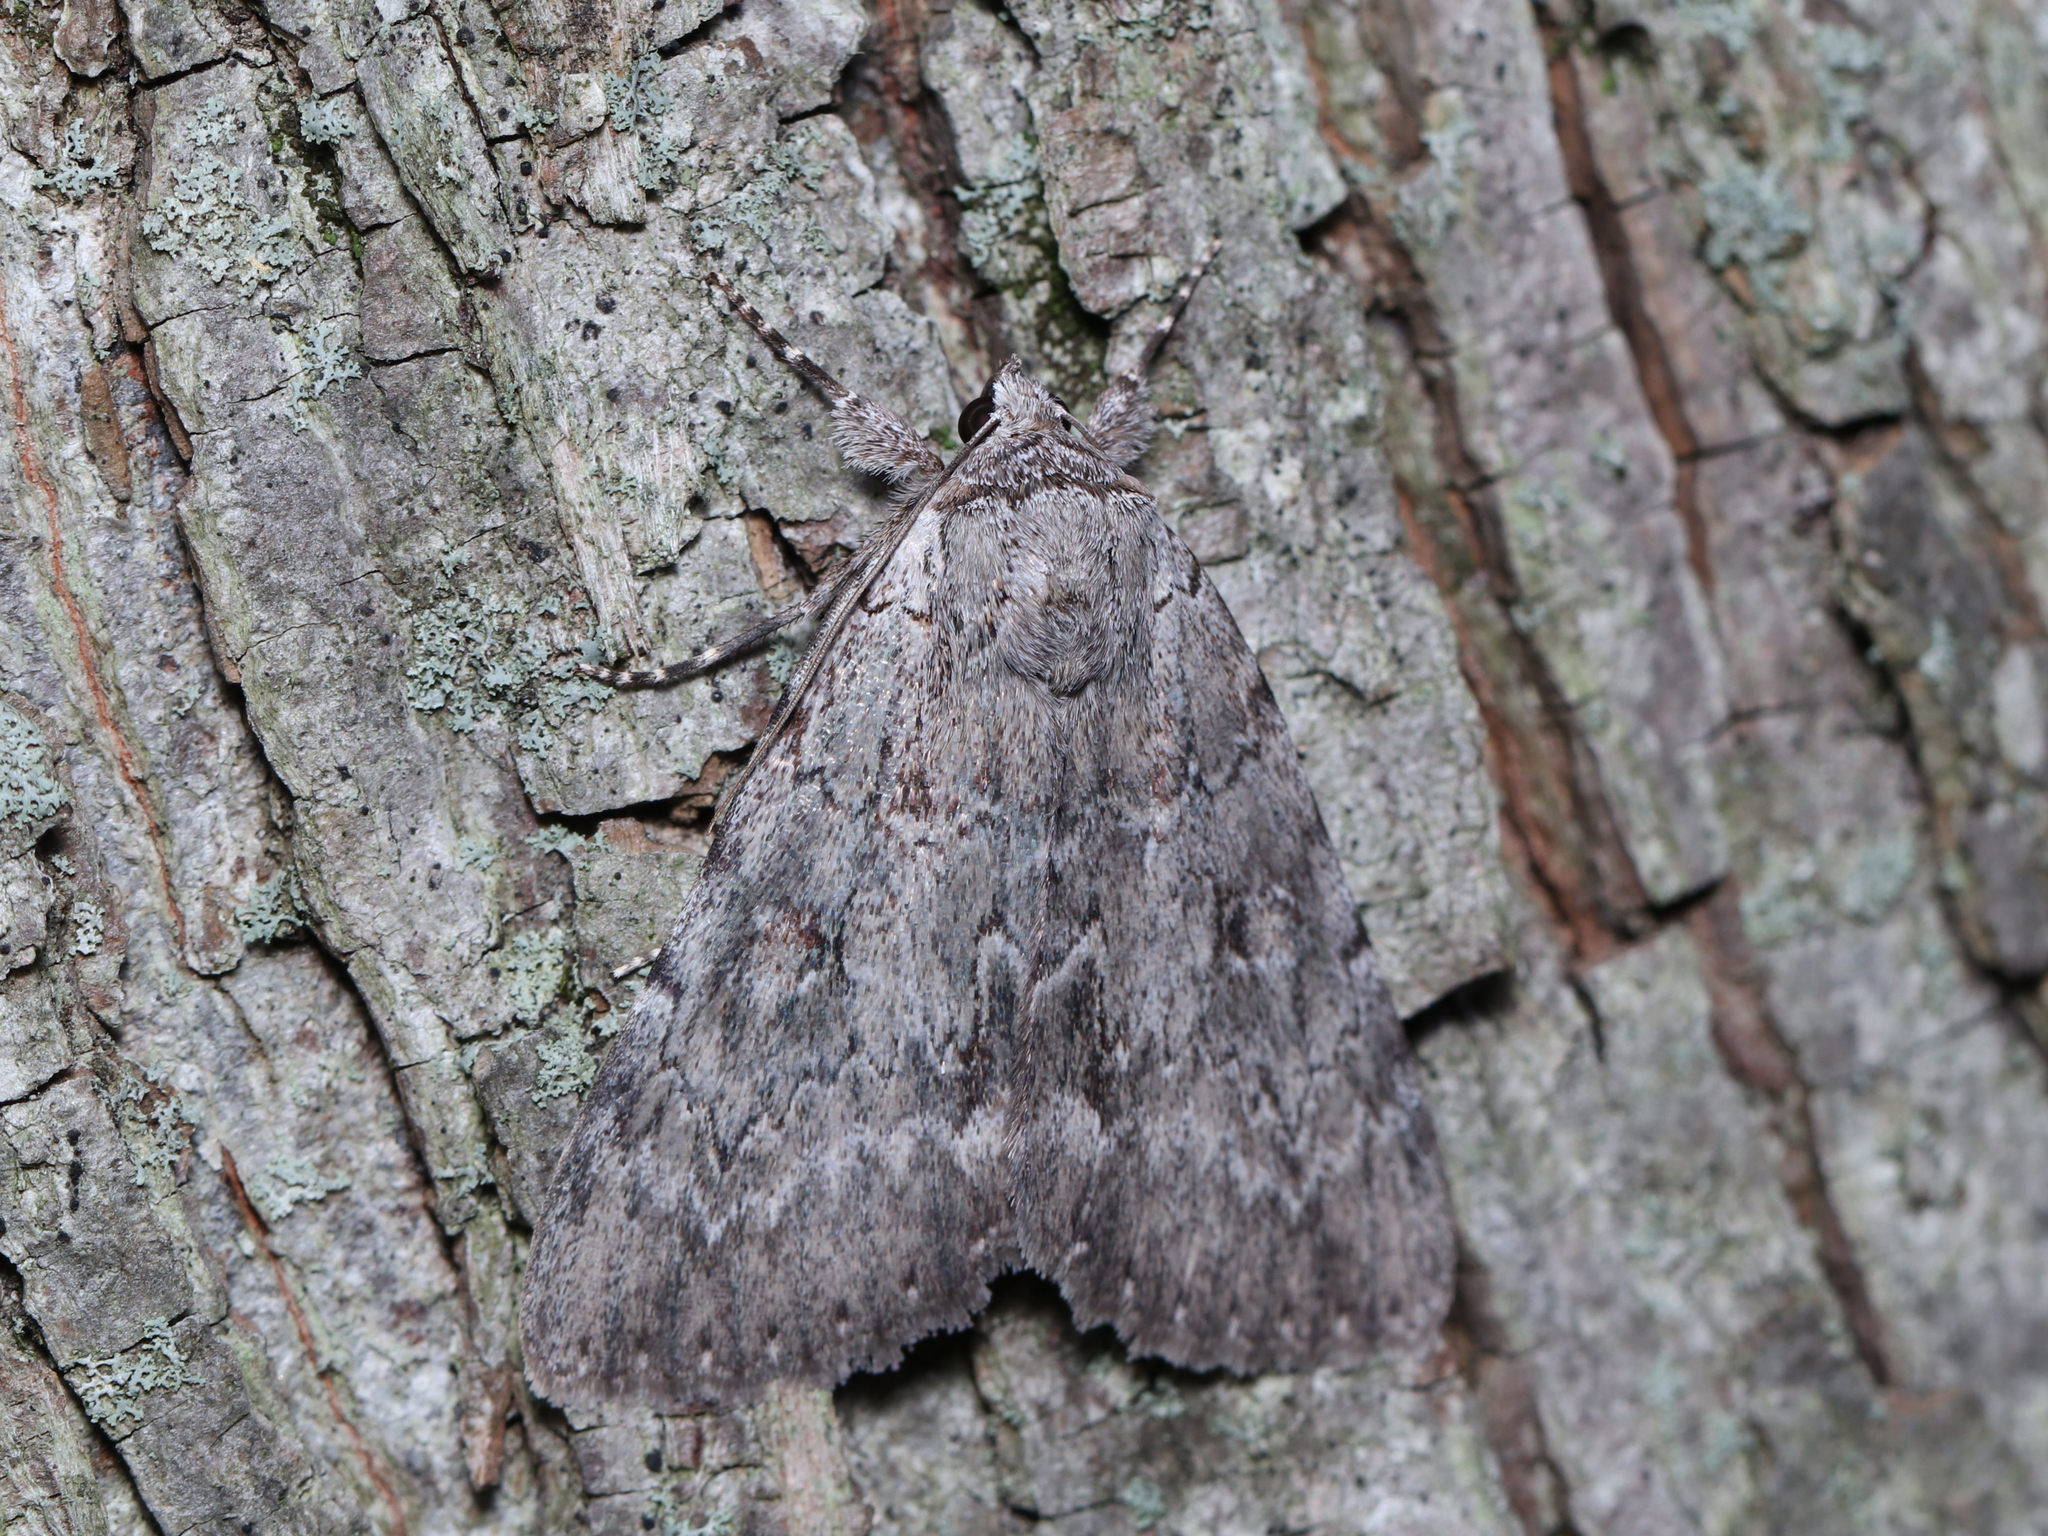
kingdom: Animalia
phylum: Arthropoda
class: Insecta
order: Lepidoptera
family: Erebidae
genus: Catocala
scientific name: Catocala judith
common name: Judith's underwing
